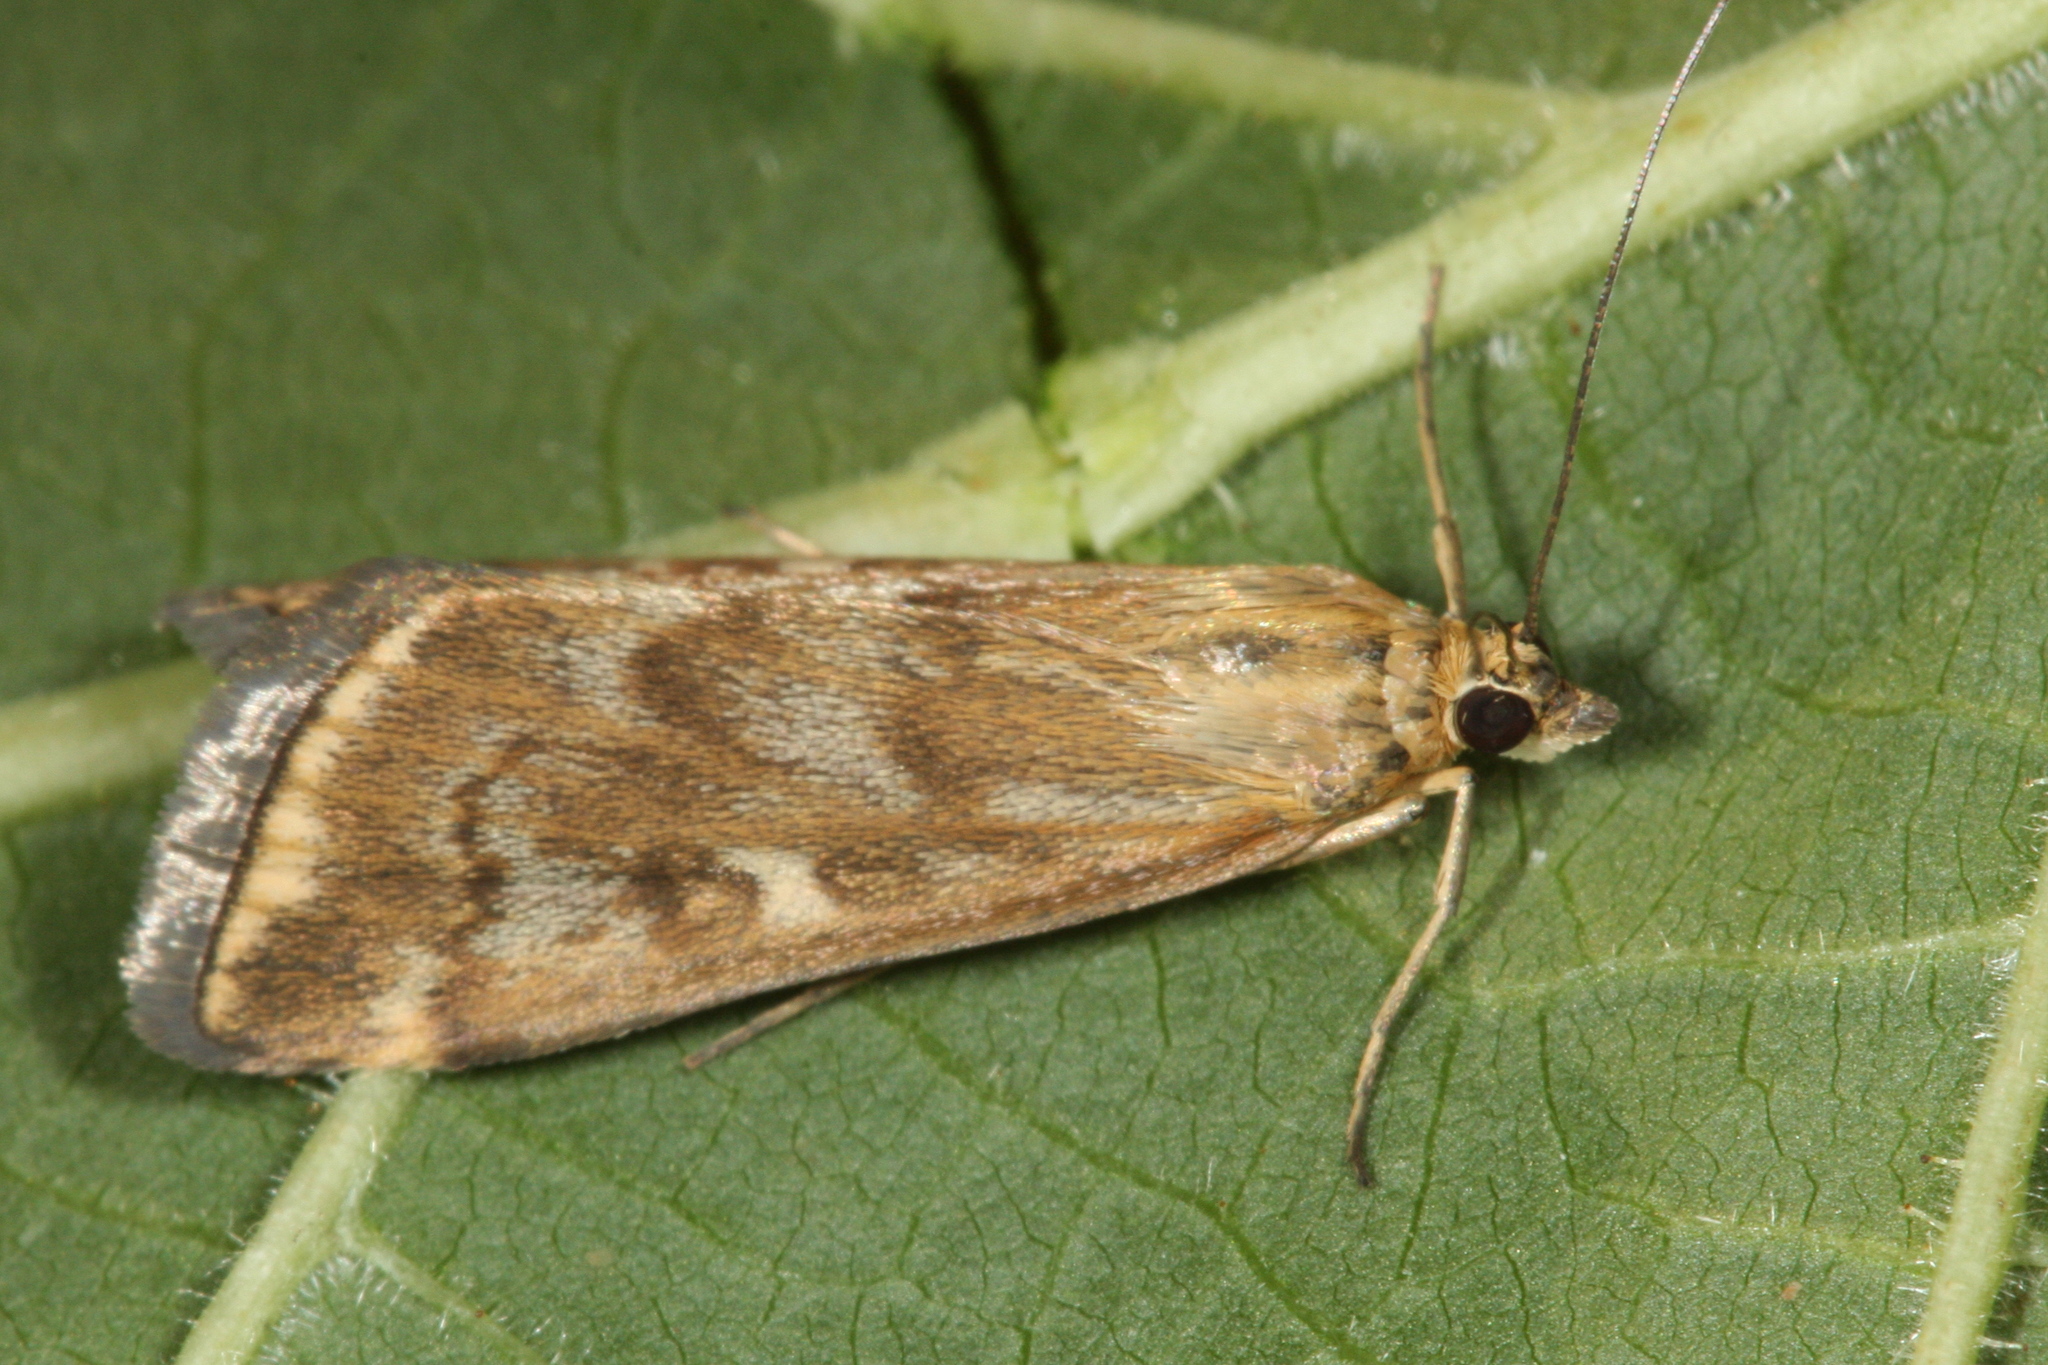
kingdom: Animalia
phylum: Arthropoda
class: Insecta
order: Lepidoptera
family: Crambidae
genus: Loxostege
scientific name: Loxostege sticticalis
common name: Crambid moth
